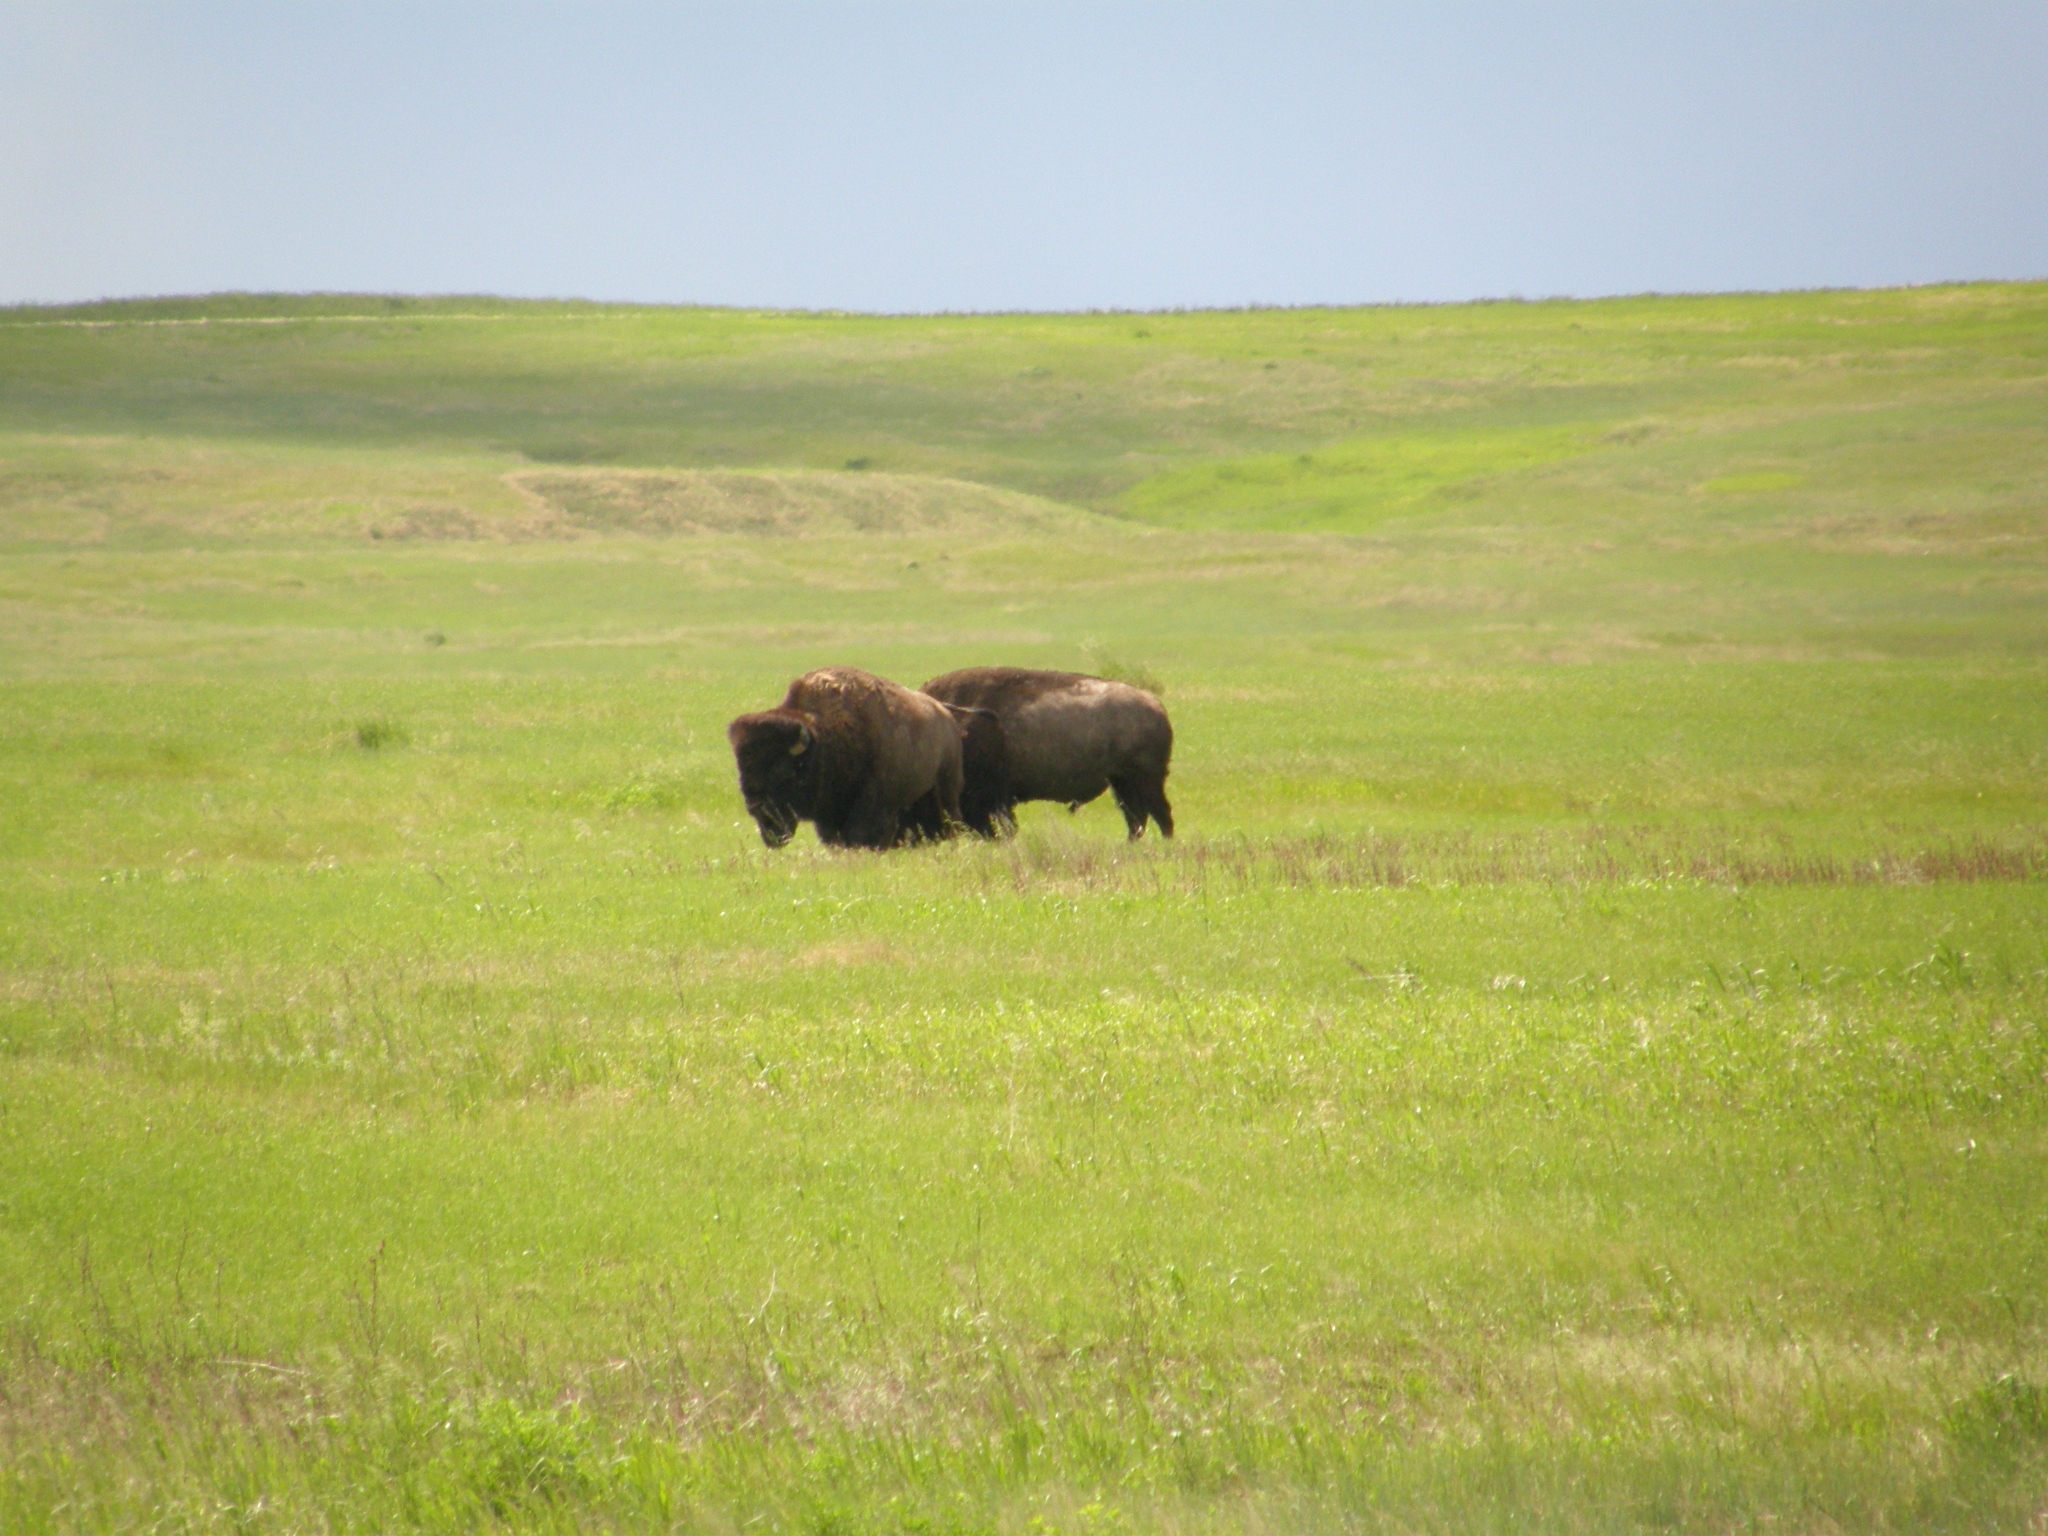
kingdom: Animalia
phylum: Chordata
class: Mammalia
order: Artiodactyla
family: Bovidae
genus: Bison
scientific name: Bison bison
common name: American bison
